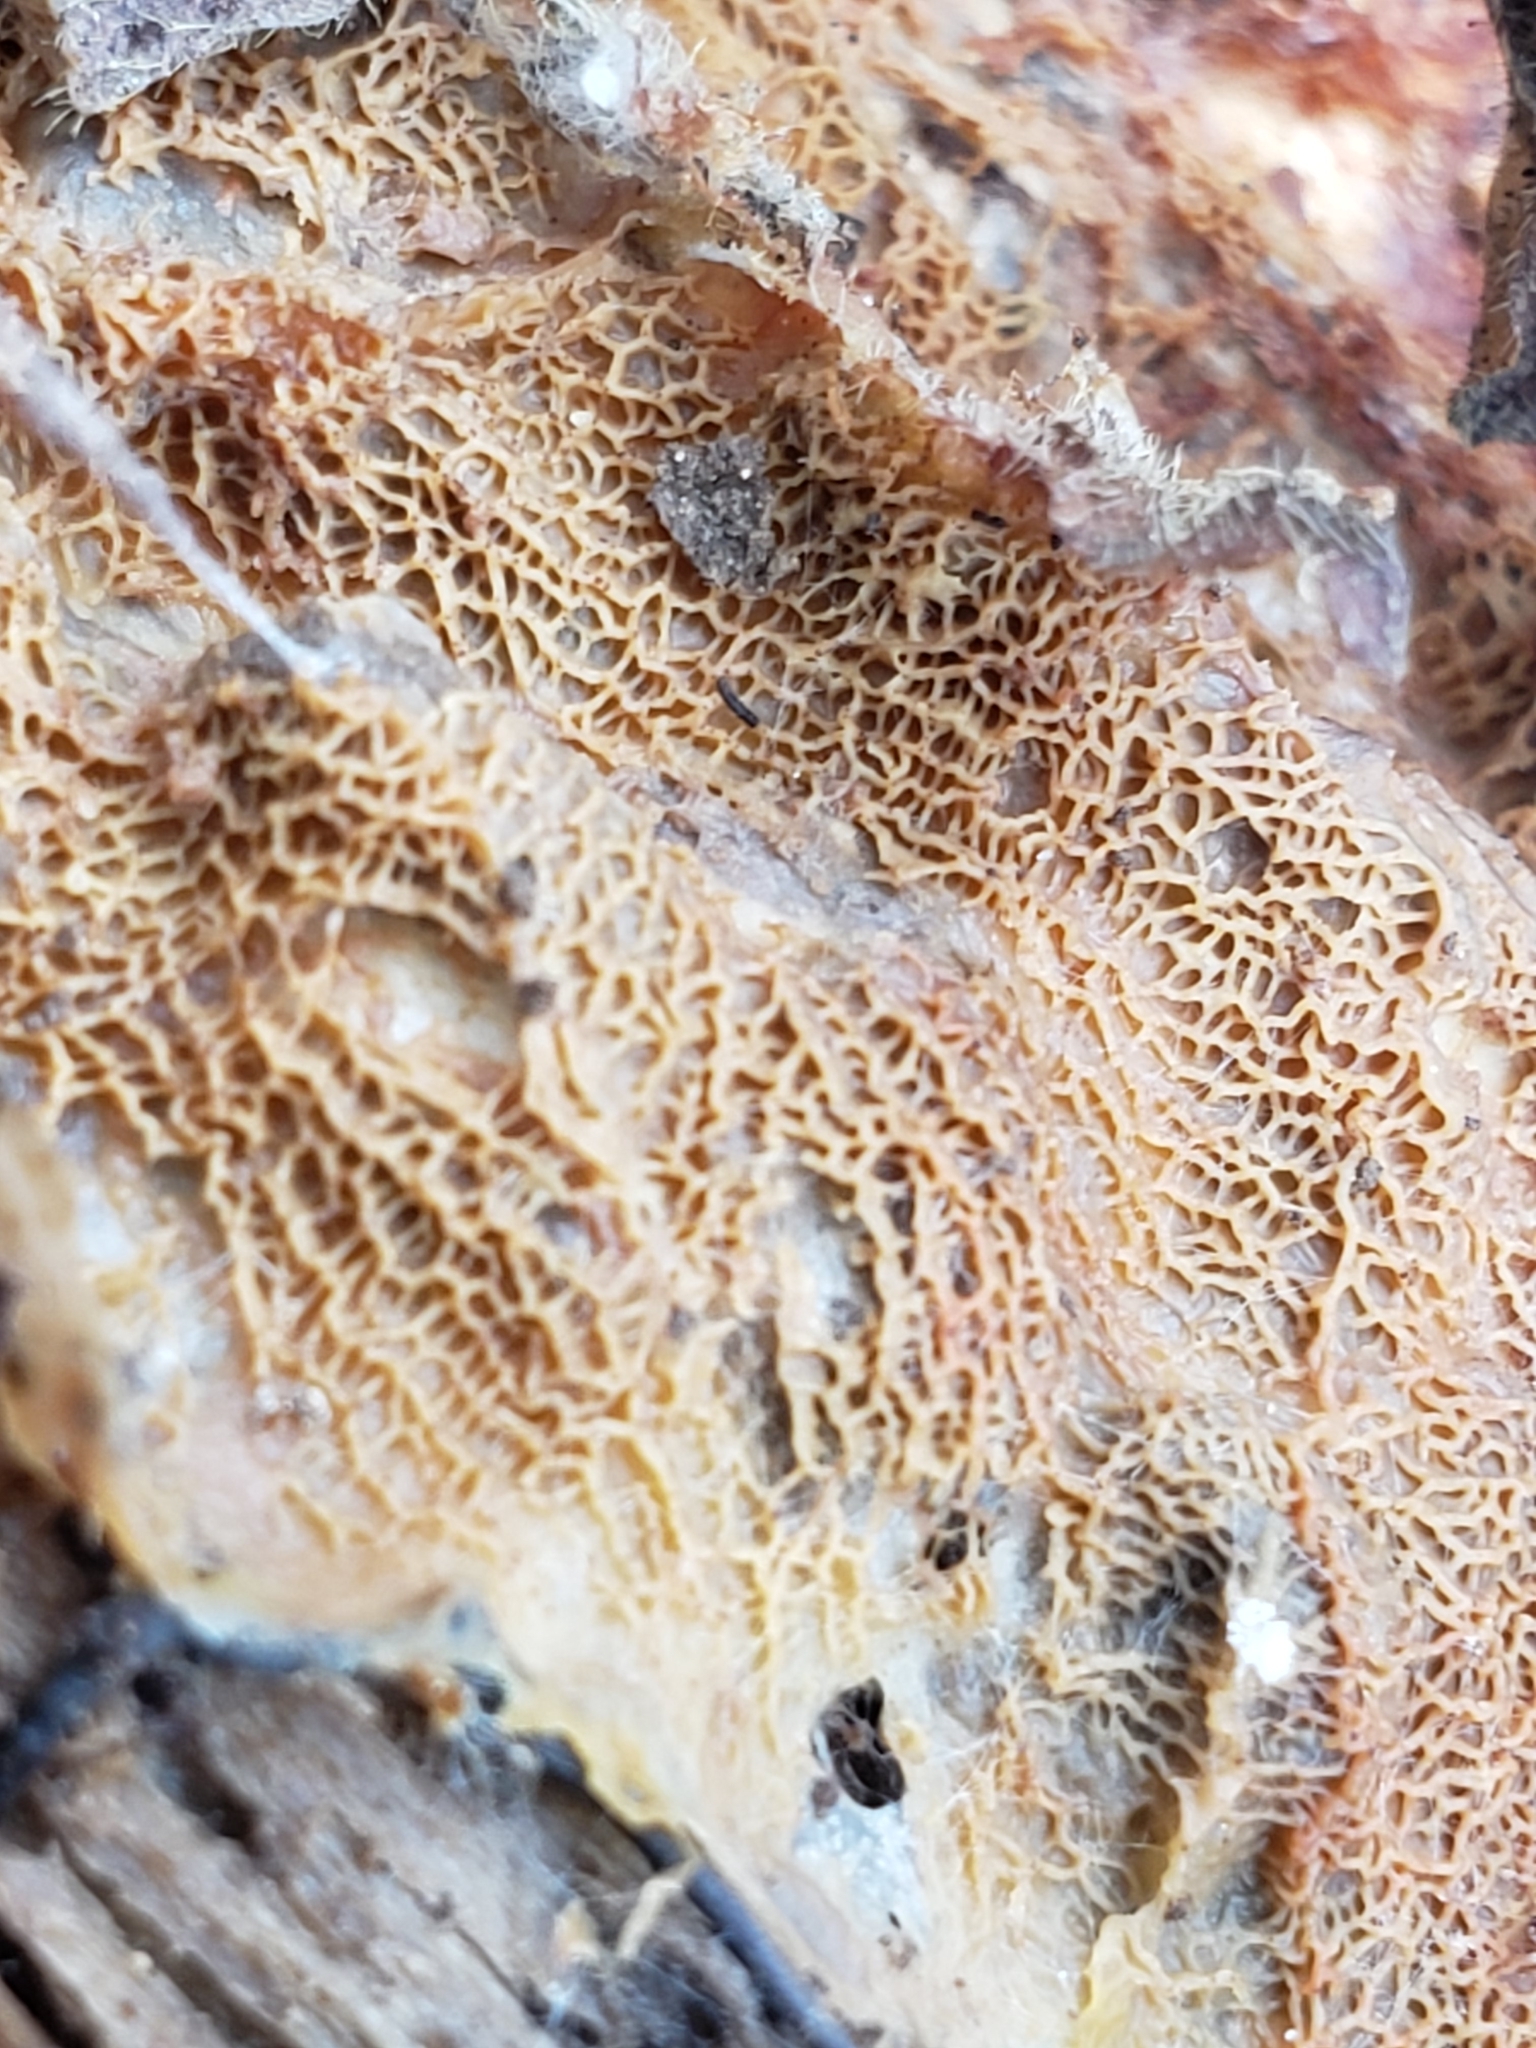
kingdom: Fungi
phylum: Basidiomycota
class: Agaricomycetes
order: Polyporales
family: Meruliaceae
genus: Phlebia
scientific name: Phlebia tremellosa
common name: Jelly rot
